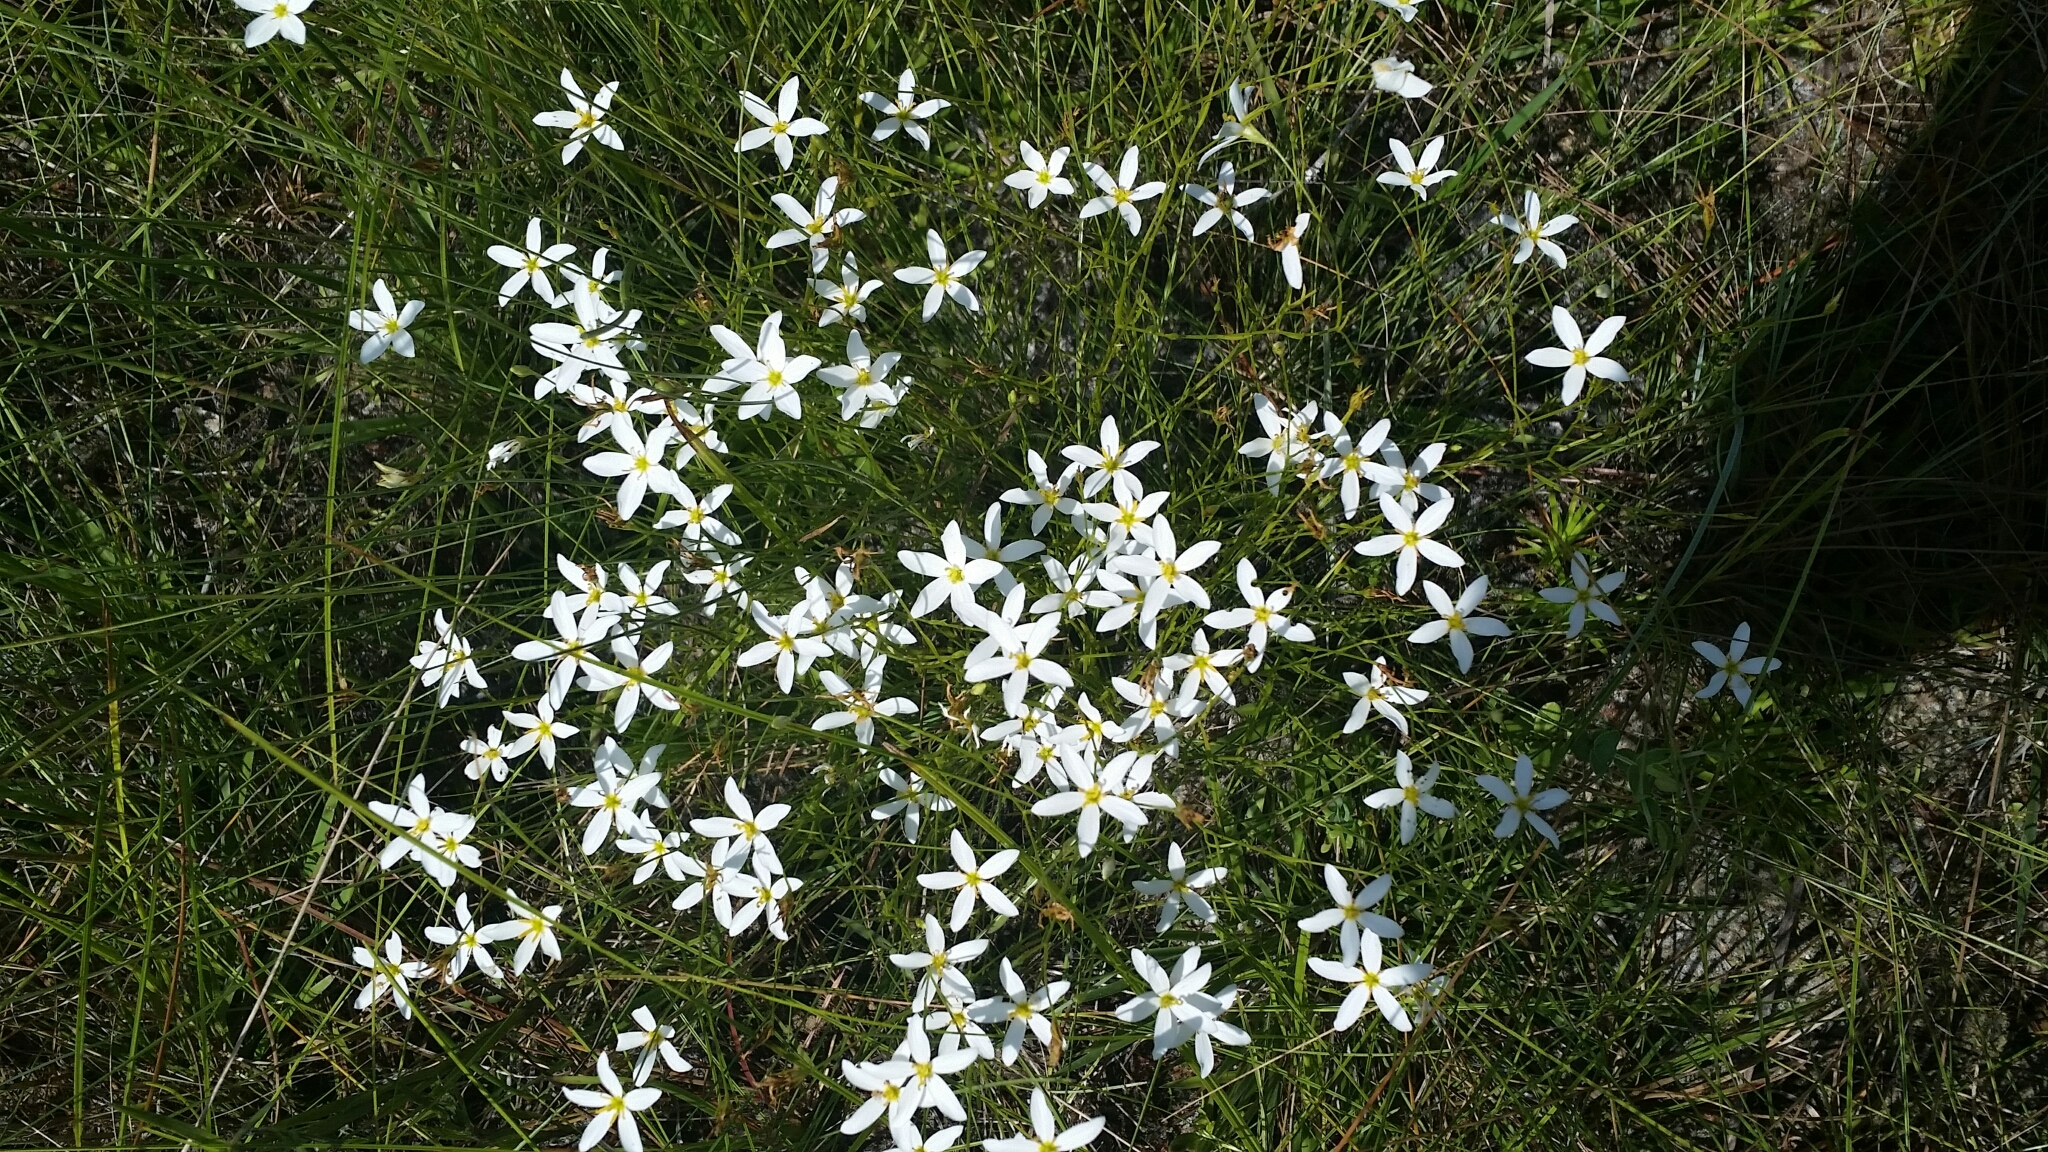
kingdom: Plantae
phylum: Tracheophyta
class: Magnoliopsida
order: Gentianales
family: Gentianaceae
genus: Sabatia
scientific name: Sabatia brevifolia
